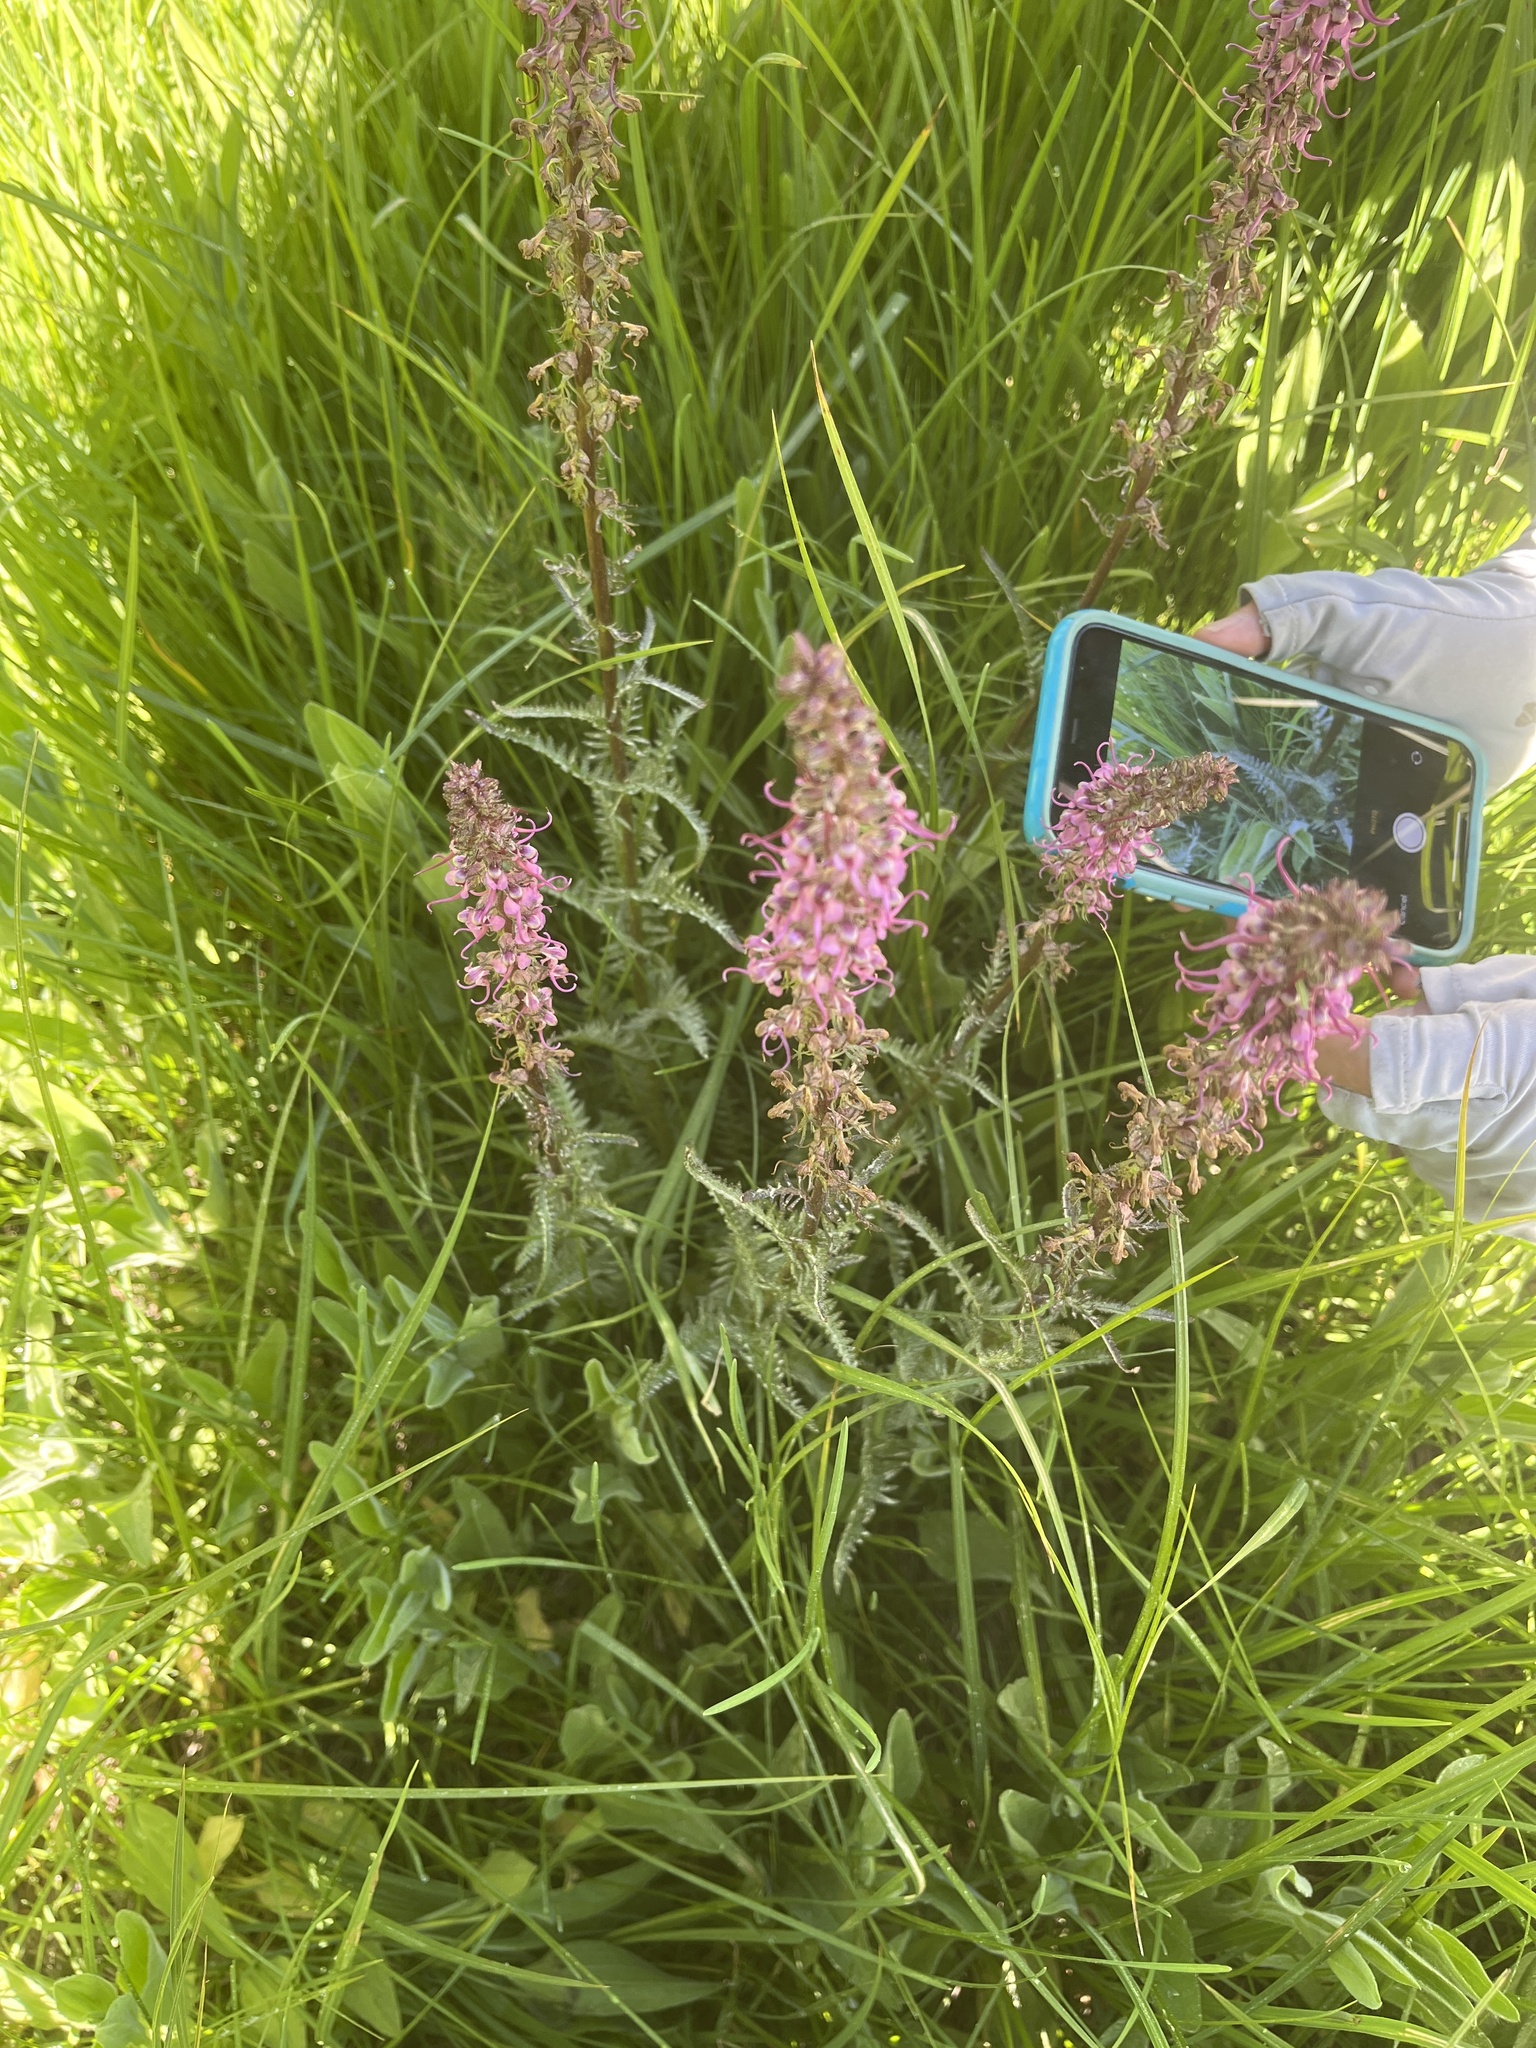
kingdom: Plantae
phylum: Tracheophyta
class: Magnoliopsida
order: Lamiales
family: Orobanchaceae
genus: Pedicularis
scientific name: Pedicularis groenlandica
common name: Elephant's-head
